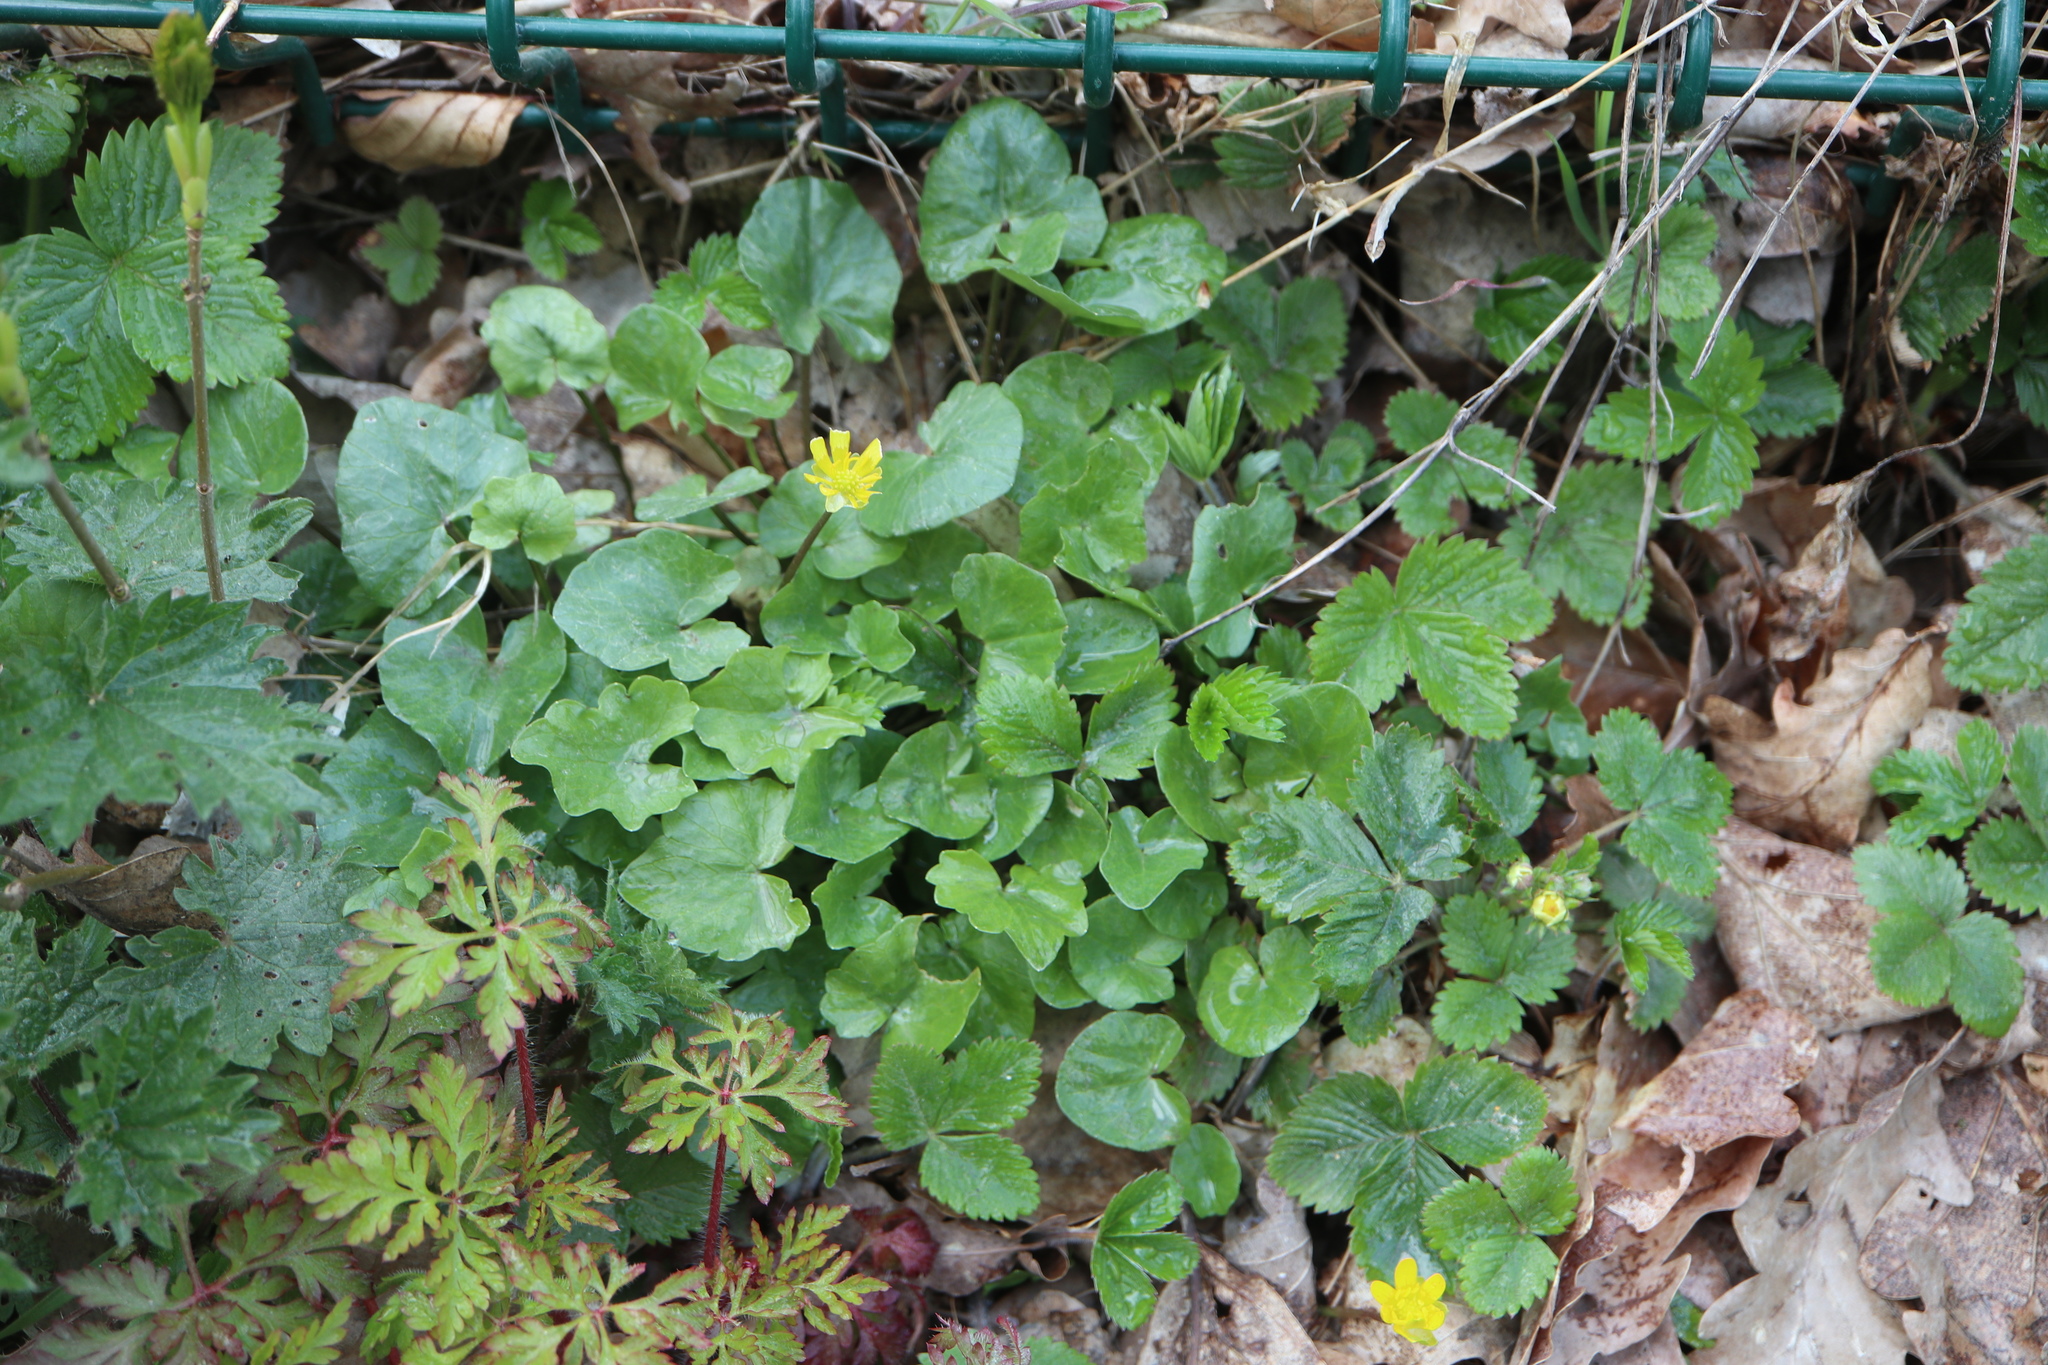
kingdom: Plantae
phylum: Tracheophyta
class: Magnoliopsida
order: Ranunculales
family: Ranunculaceae
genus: Ficaria
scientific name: Ficaria verna
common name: Lesser celandine
